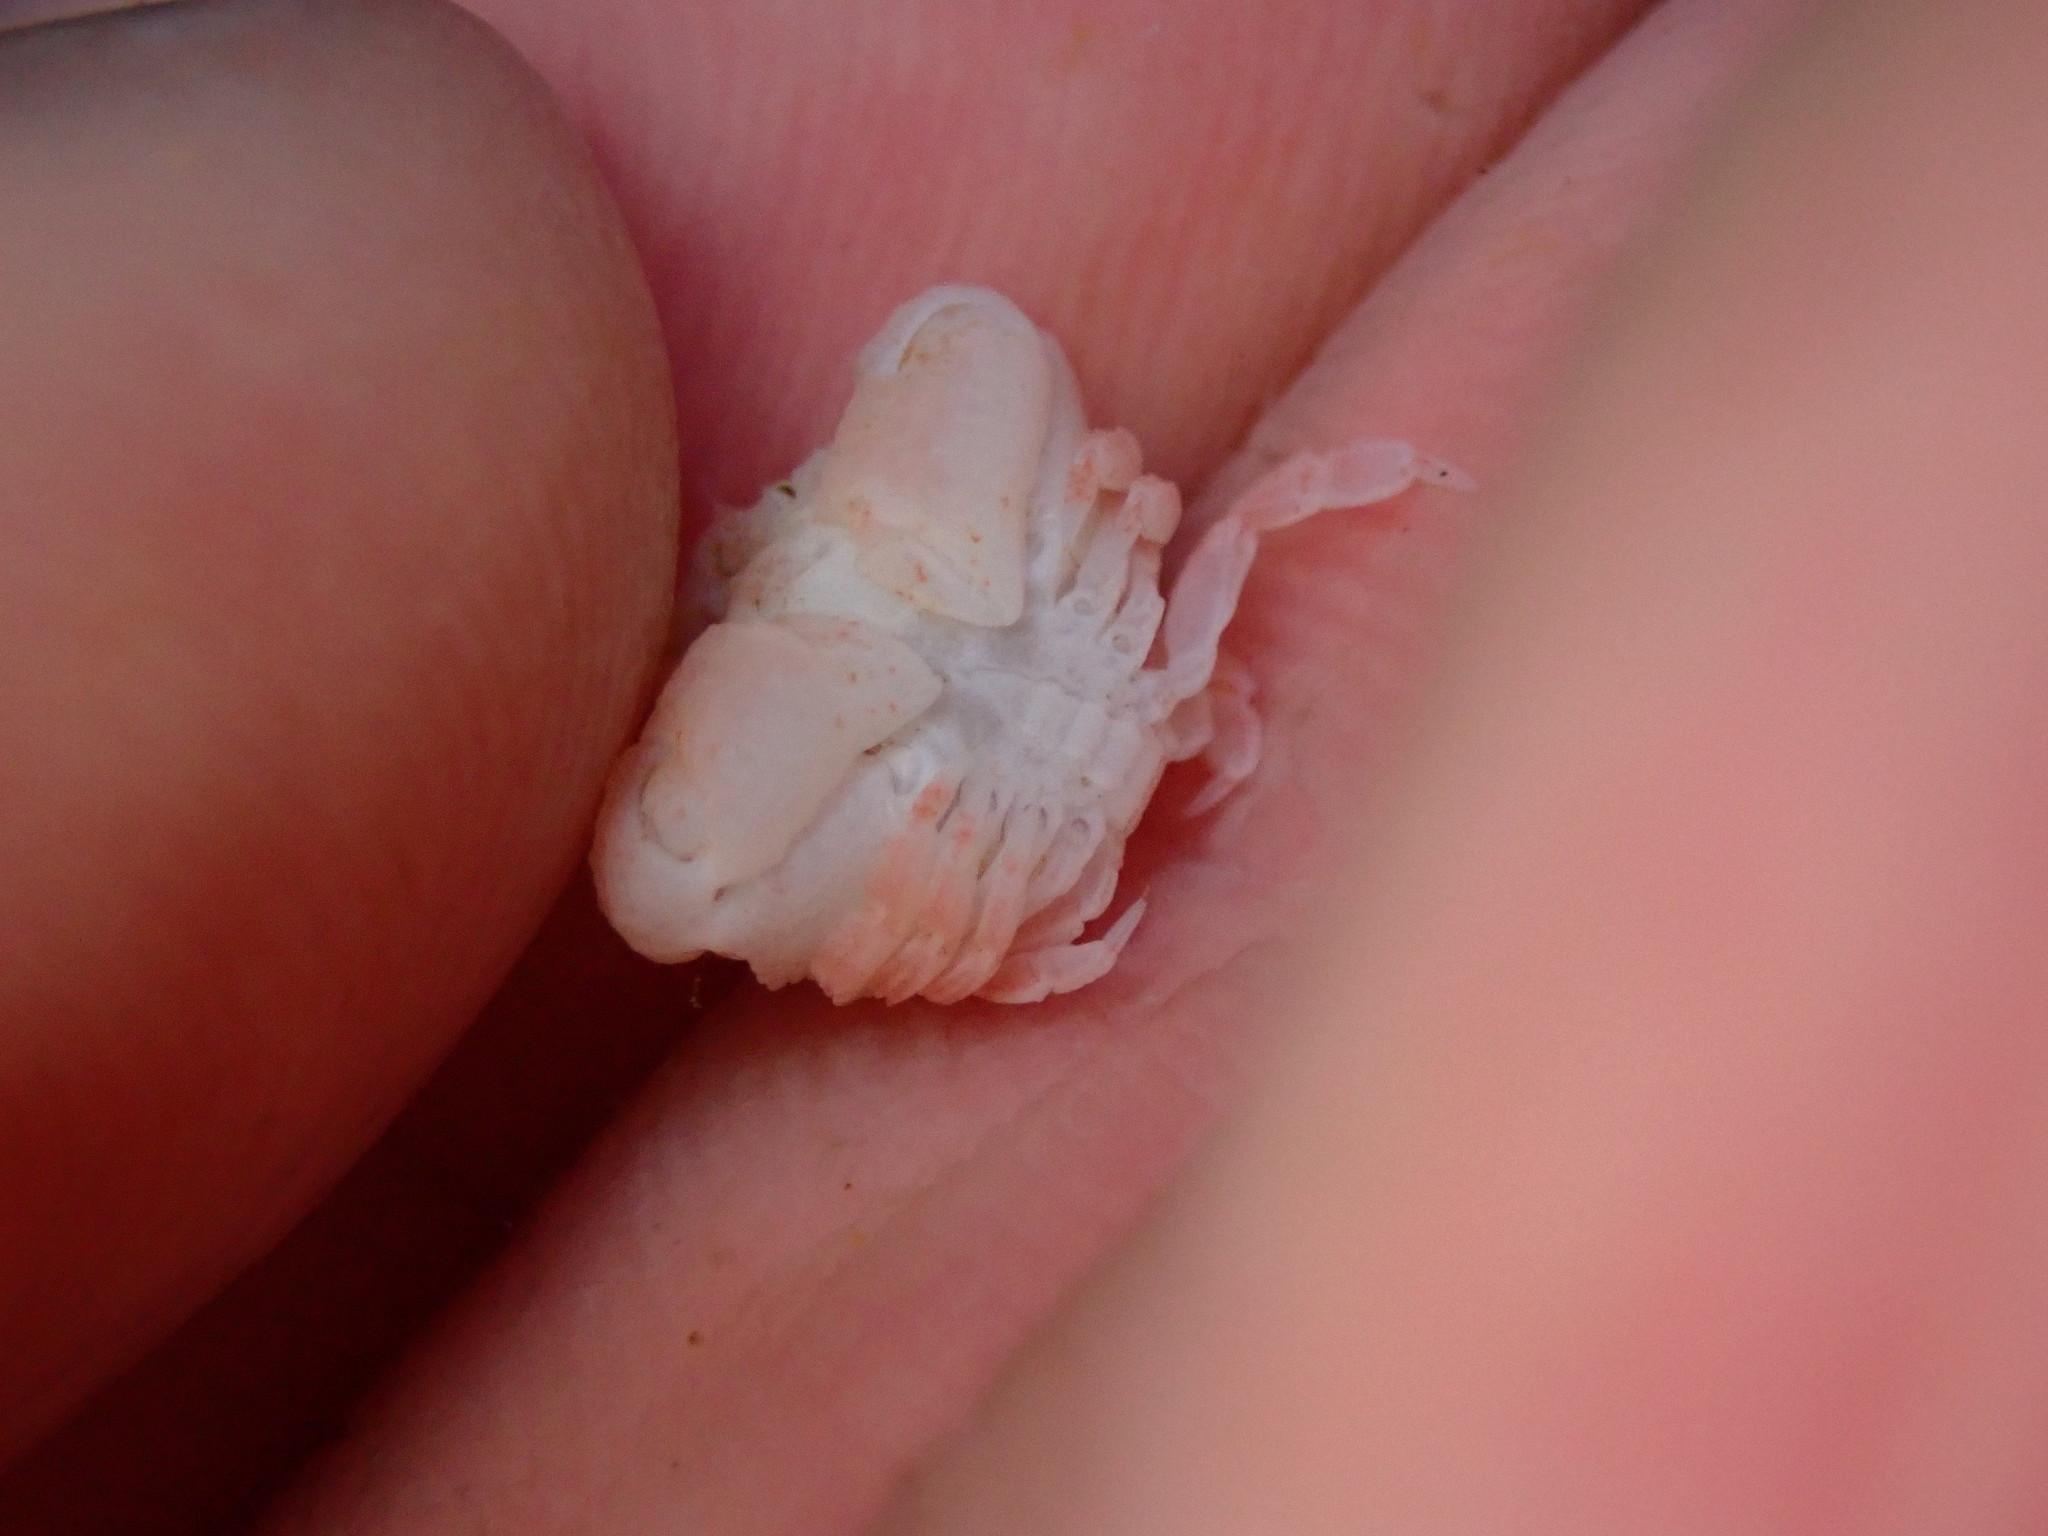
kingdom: Animalia
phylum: Arthropoda
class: Malacostraca
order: Decapoda
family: Aethridae
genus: Actaeomorpha
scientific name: Actaeomorpha erosa
